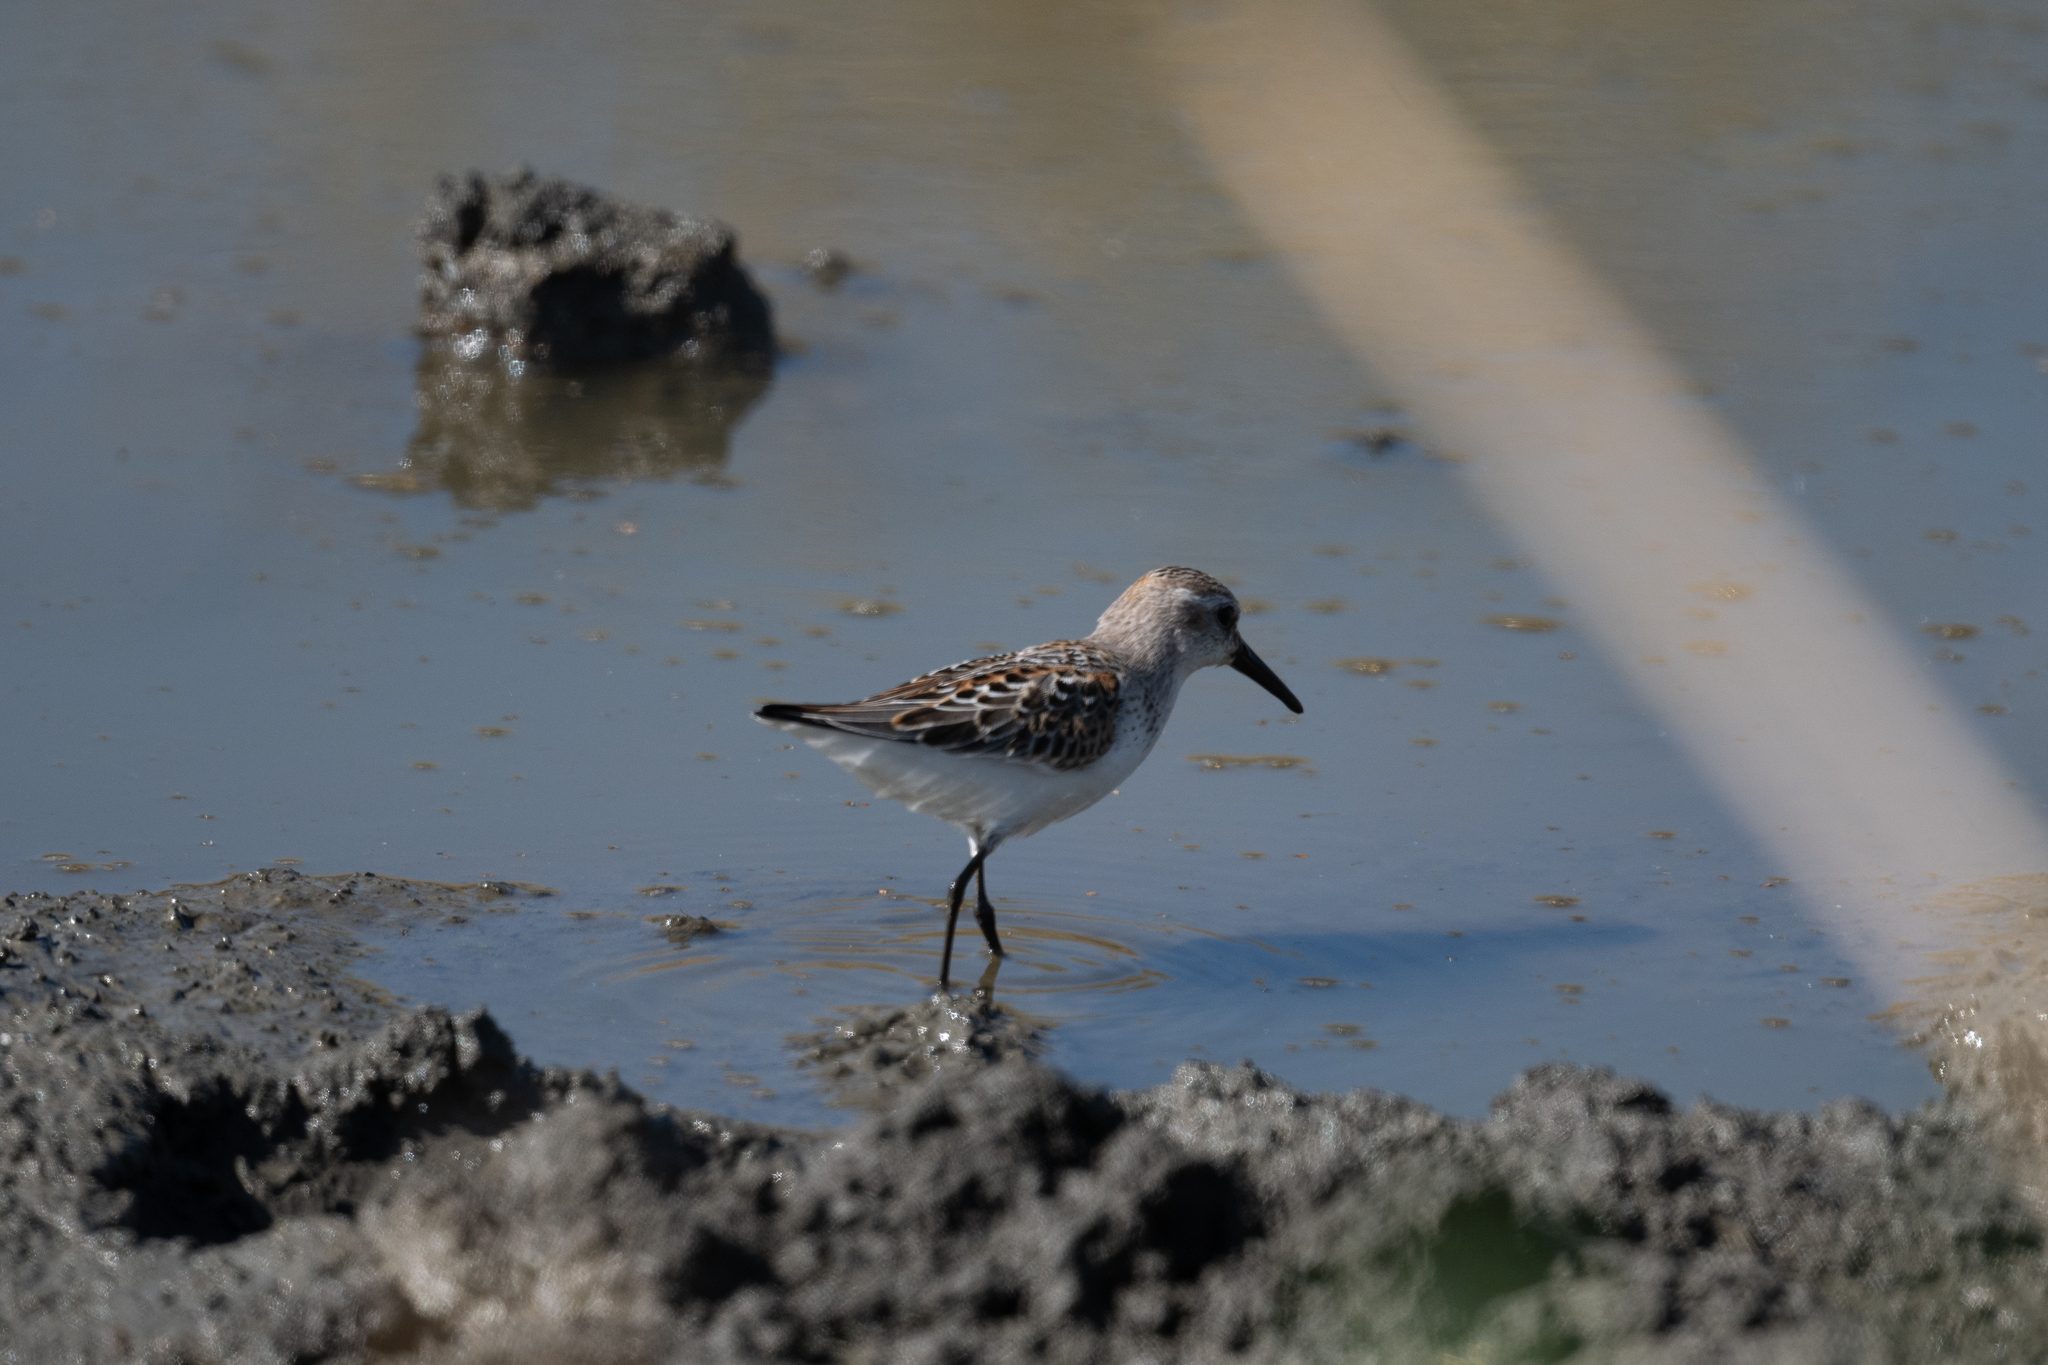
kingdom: Animalia
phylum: Chordata
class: Aves
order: Charadriiformes
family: Scolopacidae
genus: Calidris
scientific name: Calidris mauri
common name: Western sandpiper
